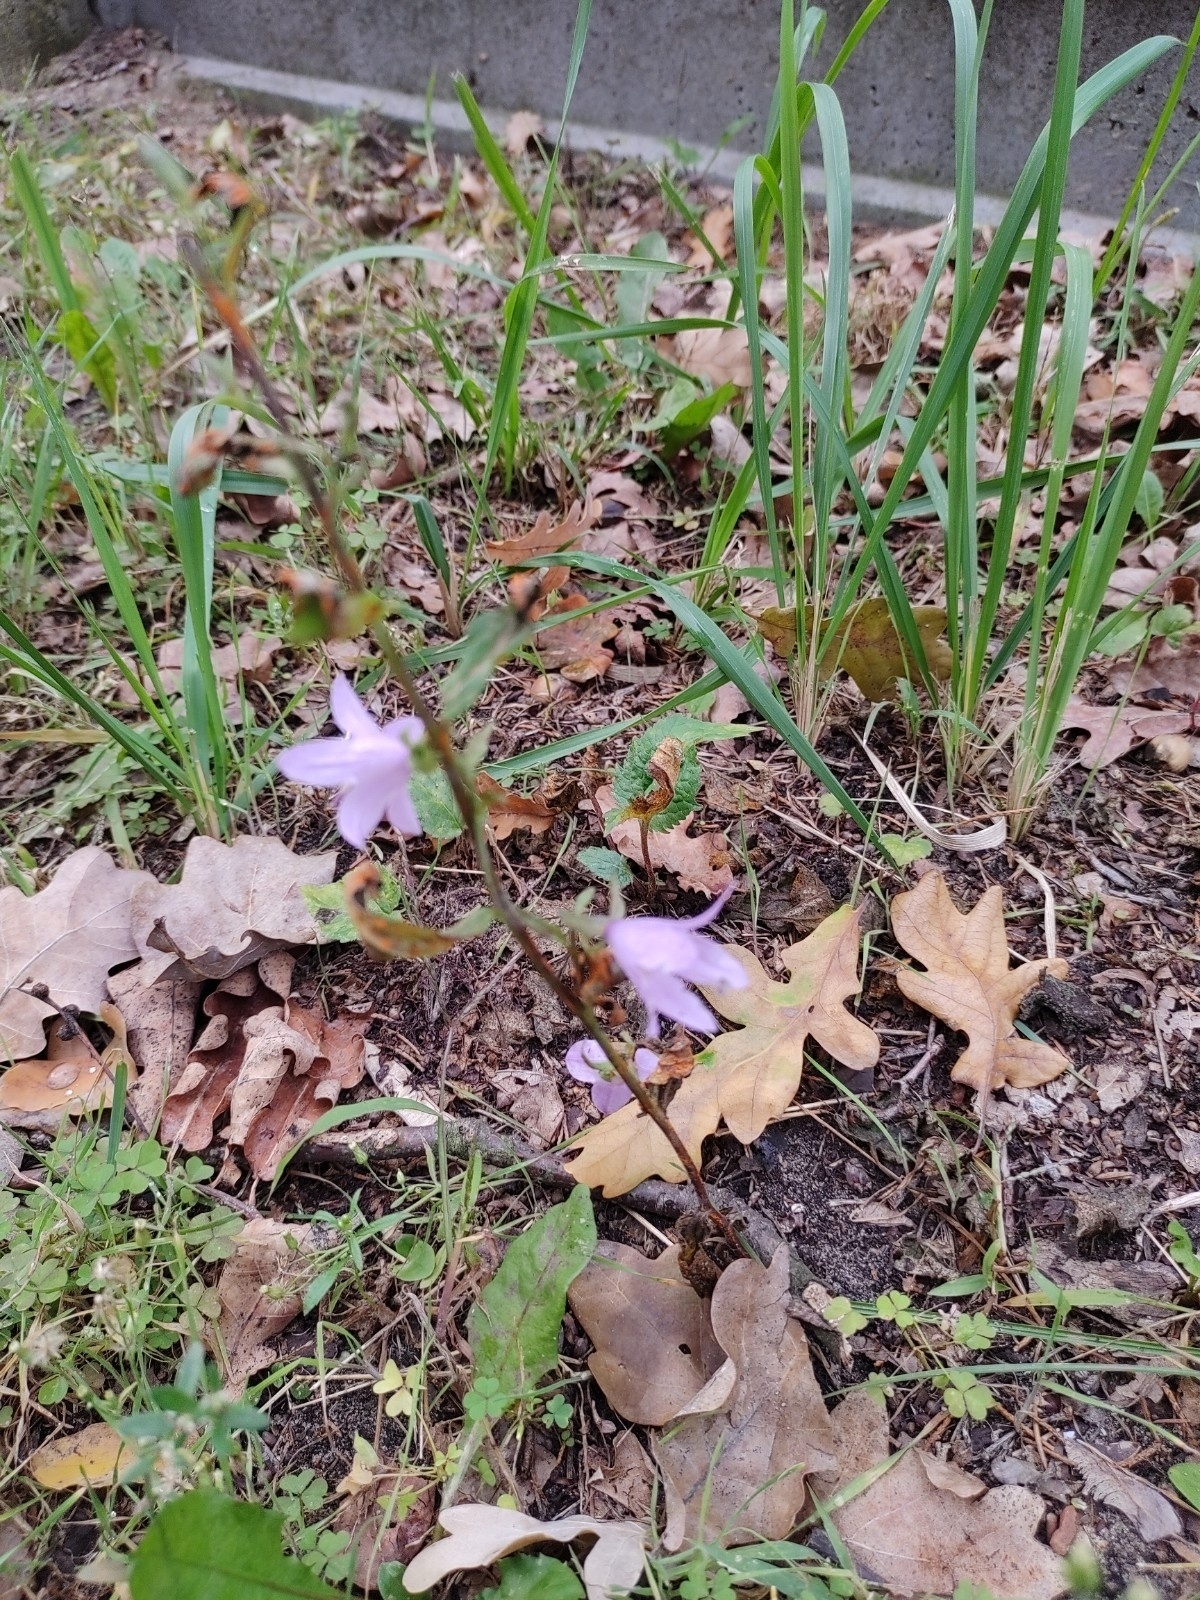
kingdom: Plantae
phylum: Tracheophyta
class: Magnoliopsida
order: Asterales
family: Campanulaceae
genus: Campanula
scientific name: Campanula rapunculoides
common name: Creeping bellflower
